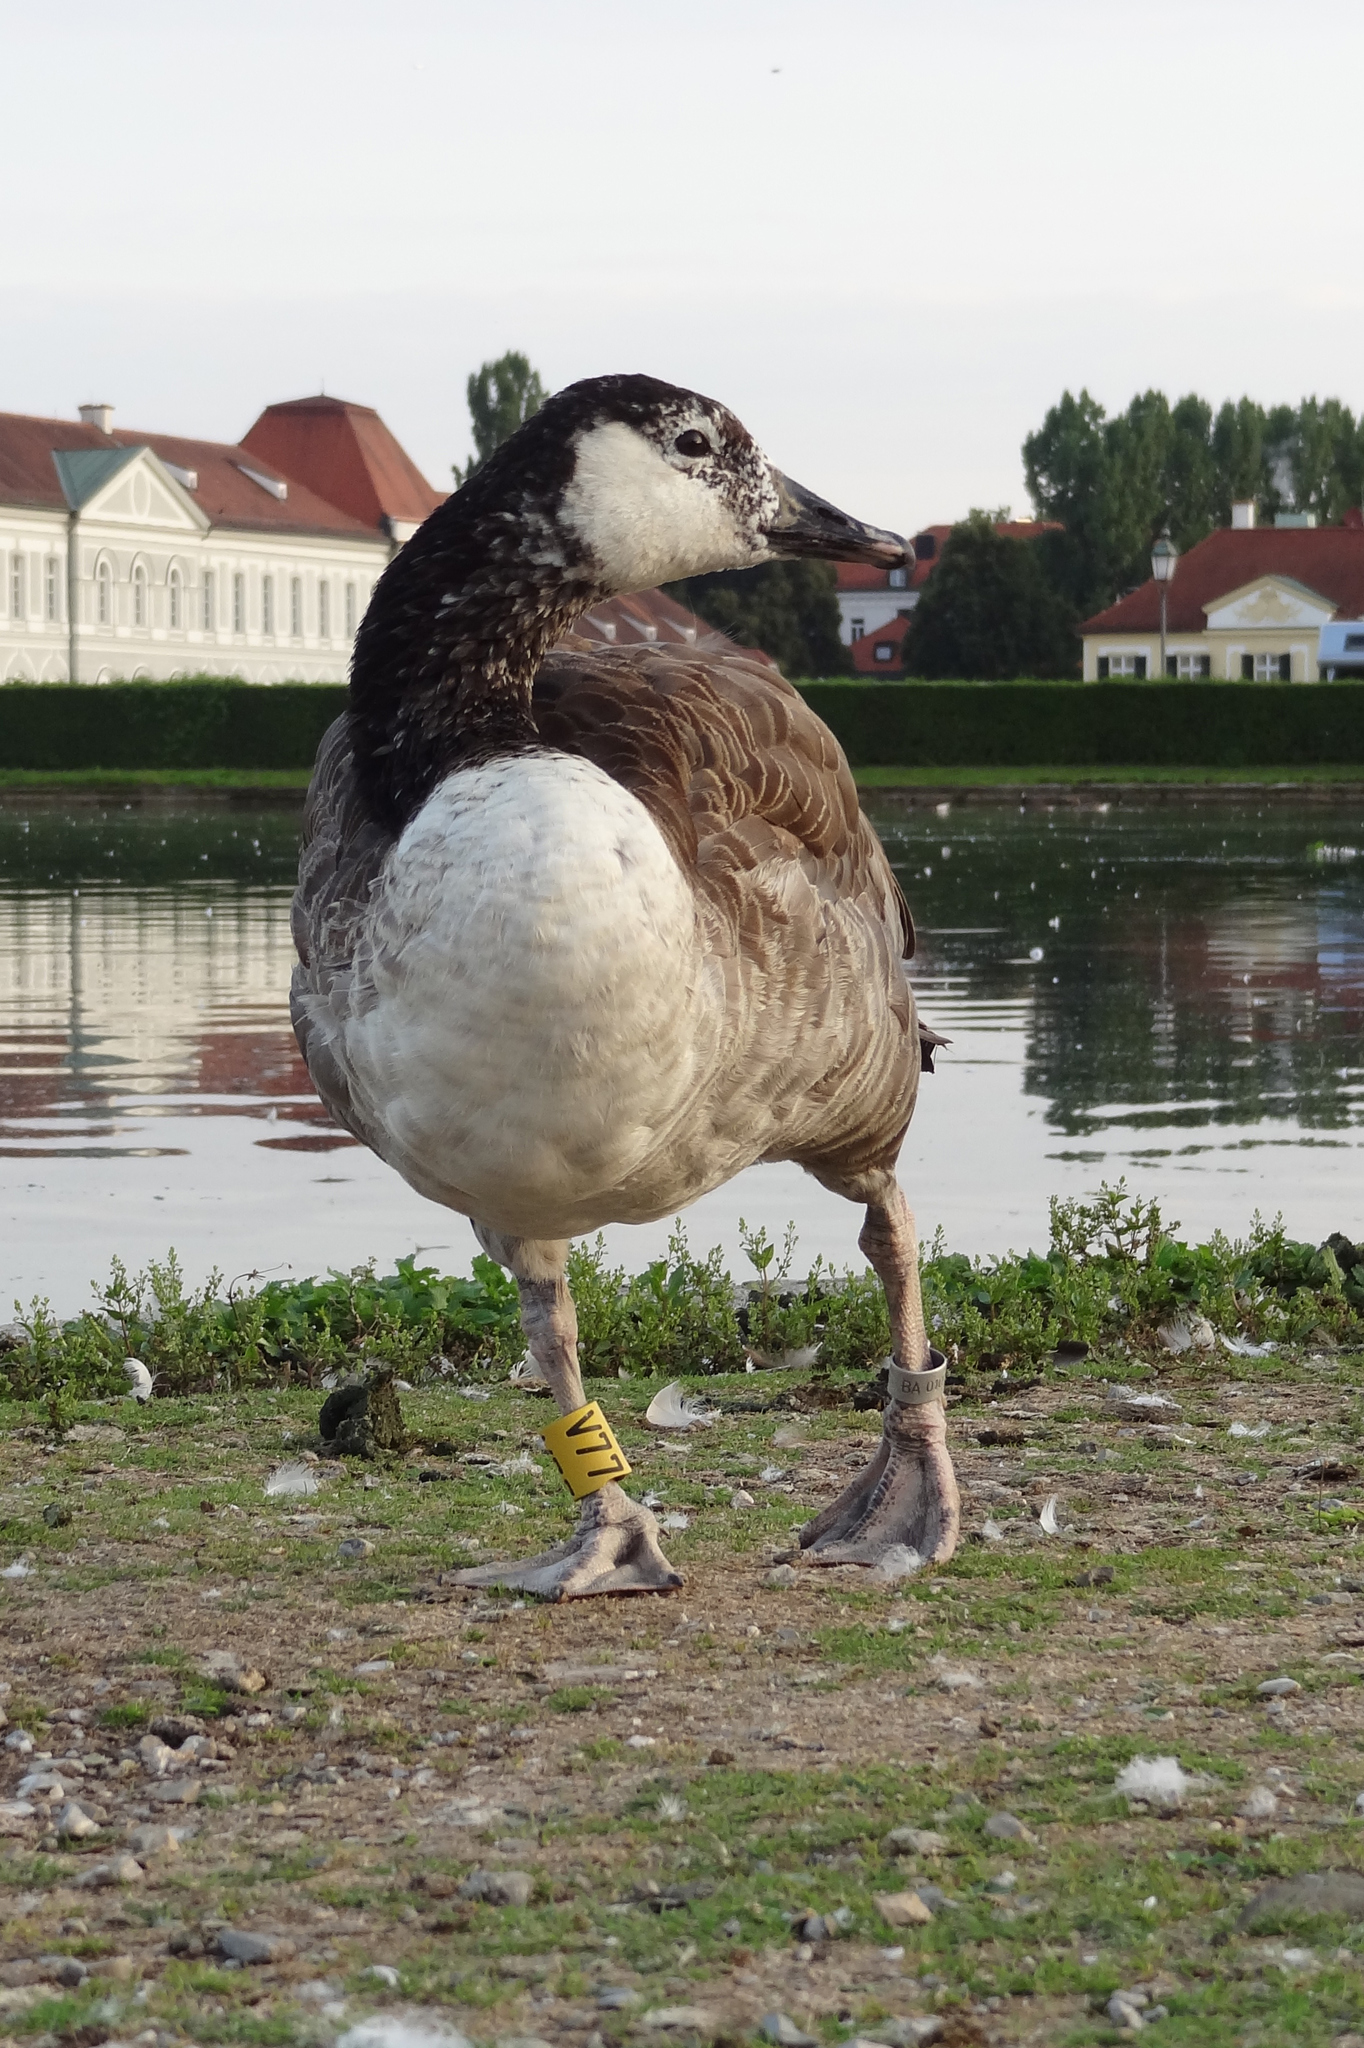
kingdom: Animalia
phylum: Chordata
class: Aves
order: Anseriformes
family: Anatidae
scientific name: Anatidae
